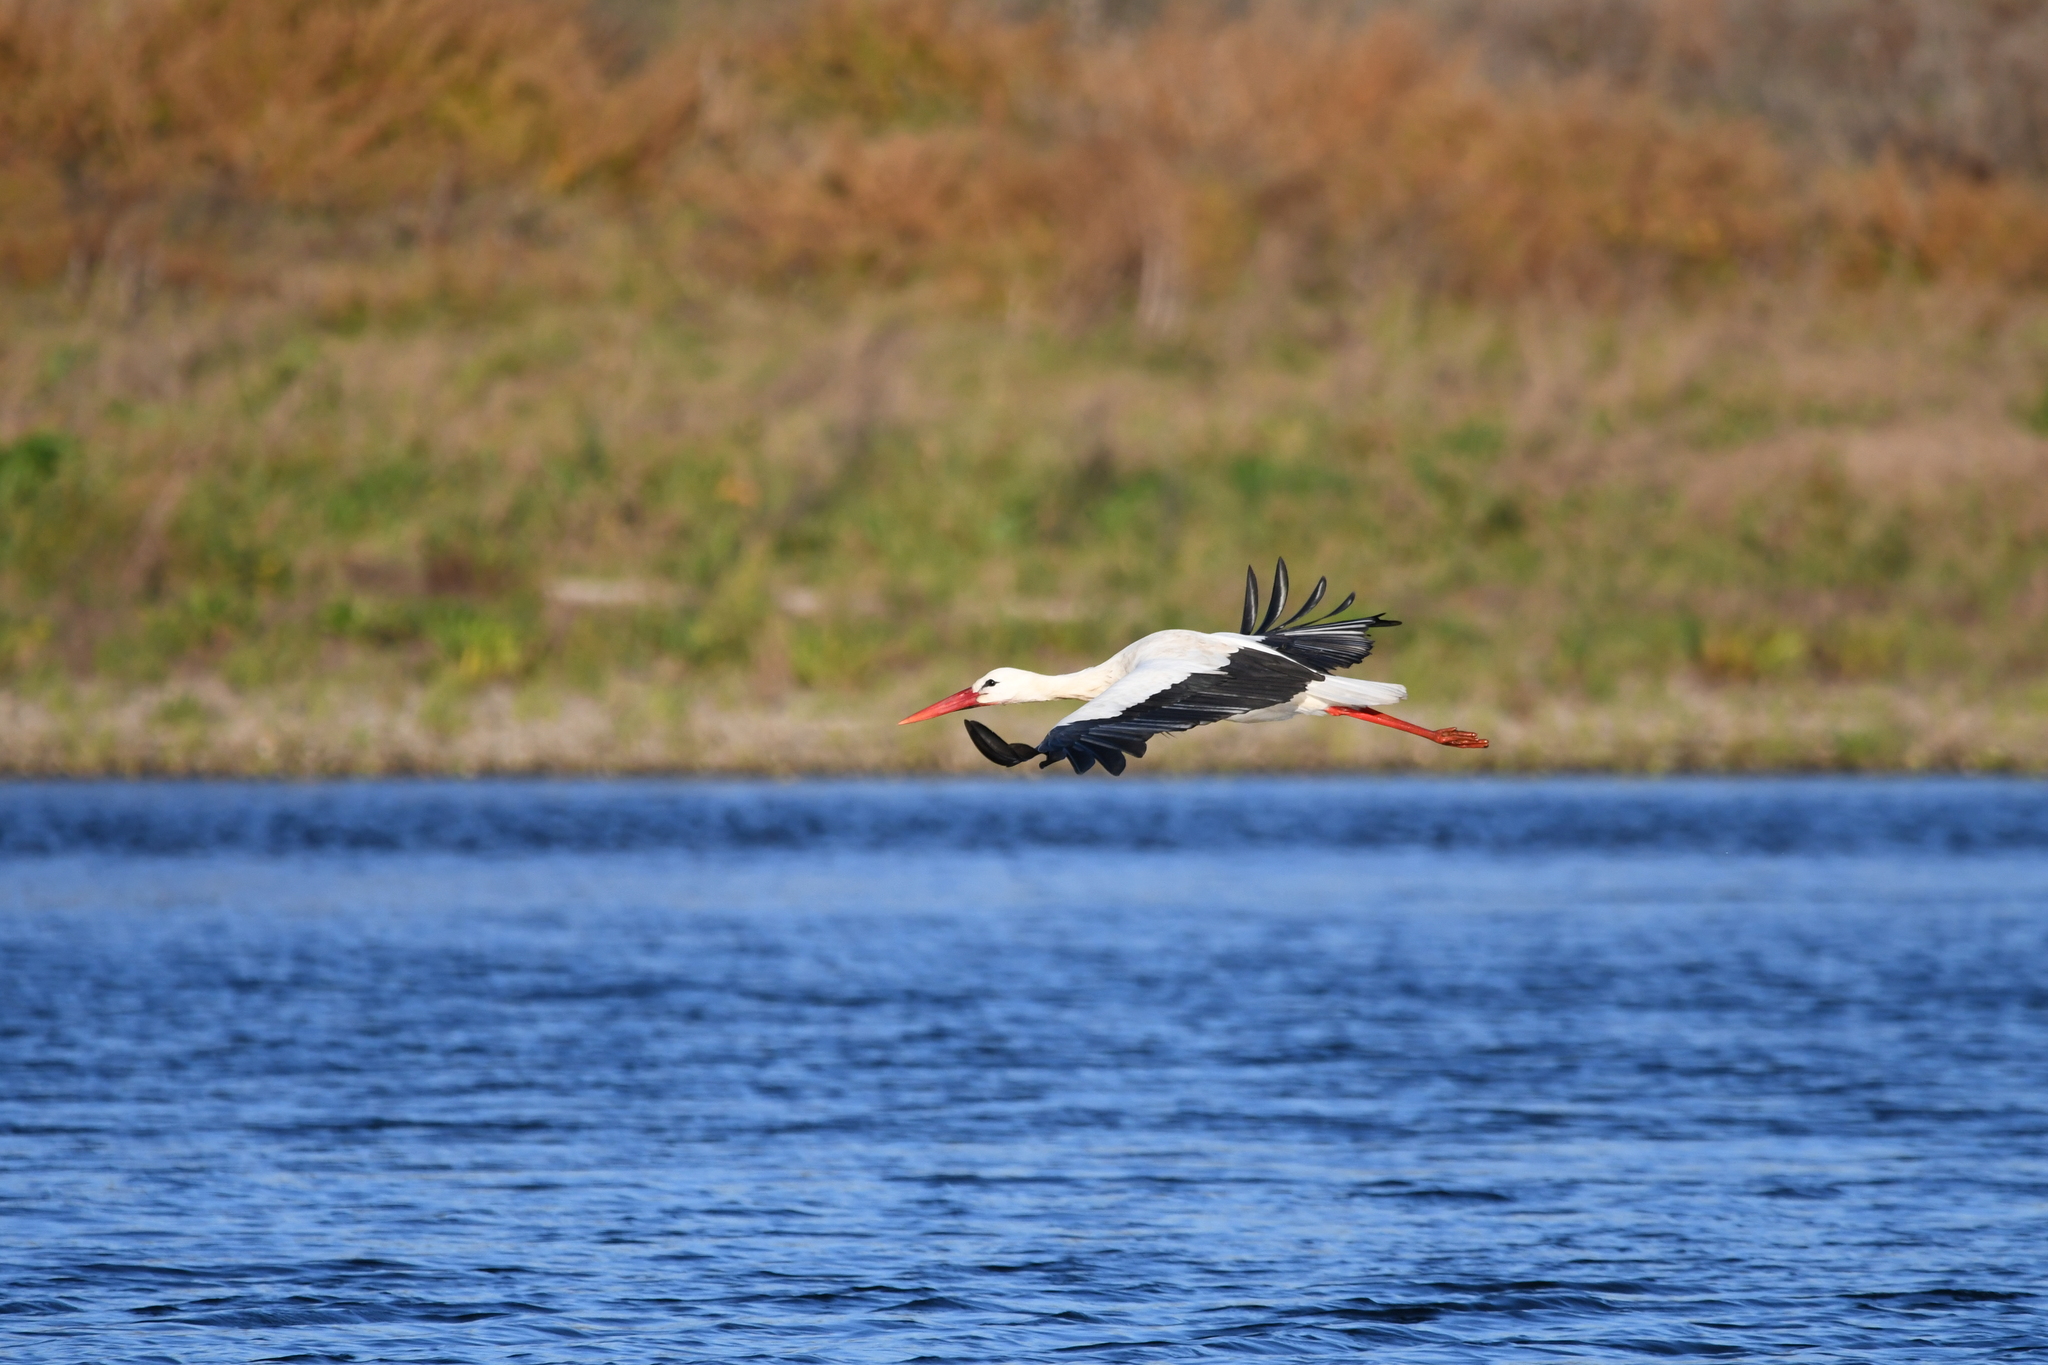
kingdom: Animalia
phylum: Chordata
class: Aves
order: Ciconiiformes
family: Ciconiidae
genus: Ciconia
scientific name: Ciconia ciconia
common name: White stork
